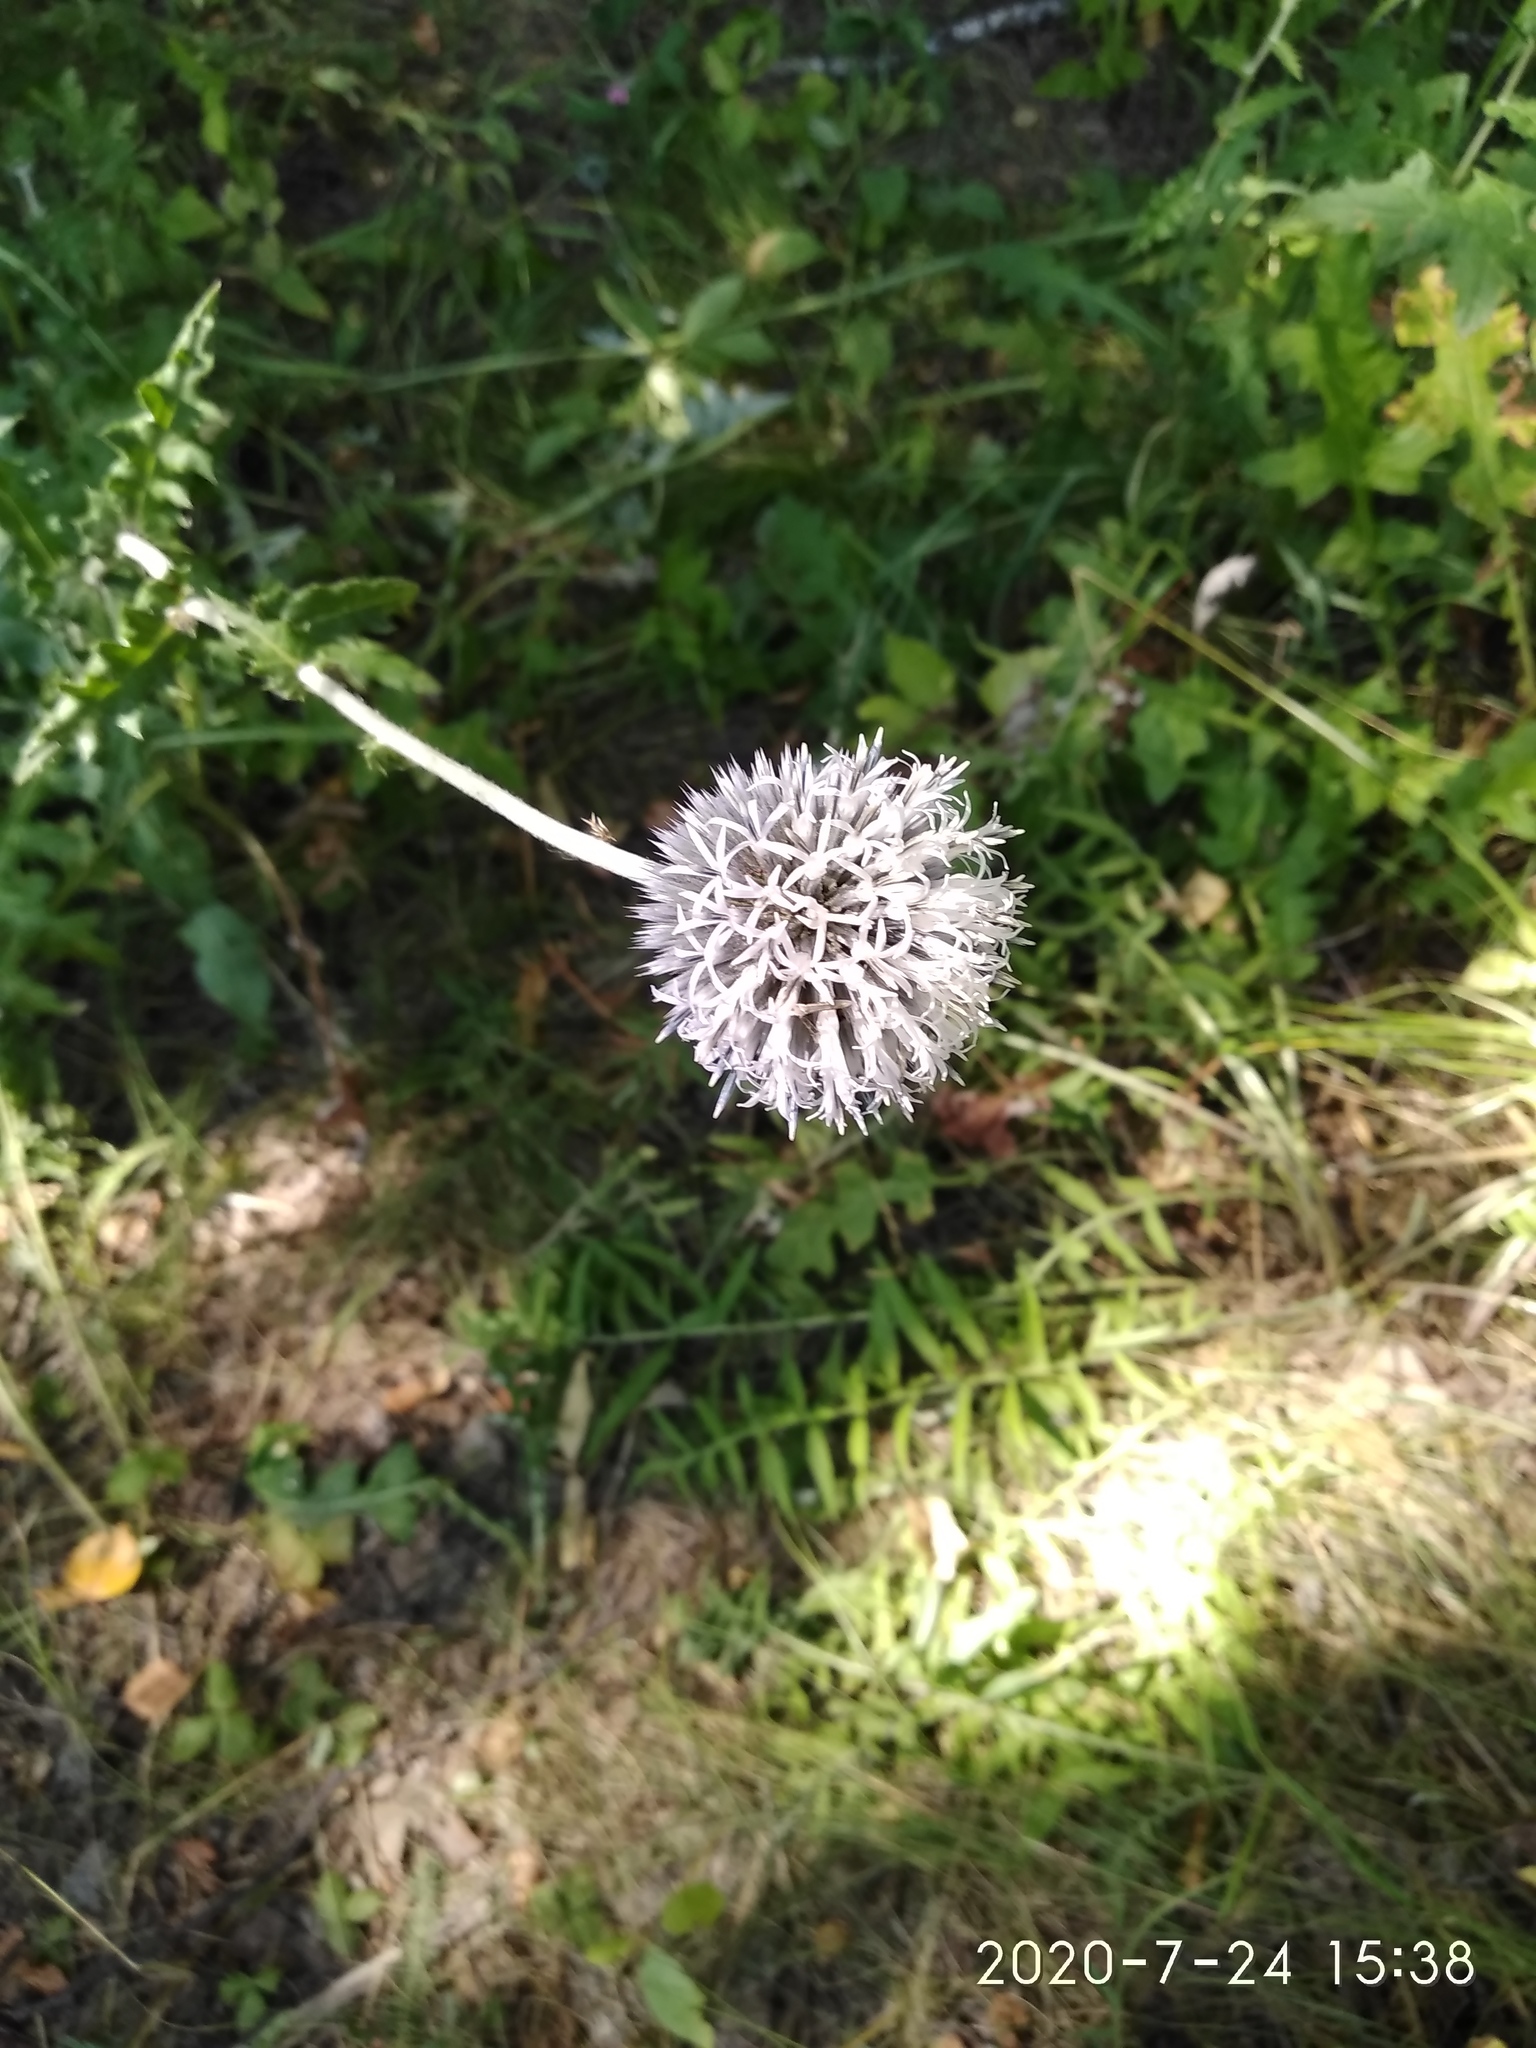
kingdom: Plantae
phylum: Tracheophyta
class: Magnoliopsida
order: Asterales
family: Asteraceae
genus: Echinops
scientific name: Echinops sphaerocephalus
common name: Glandular globe-thistle
